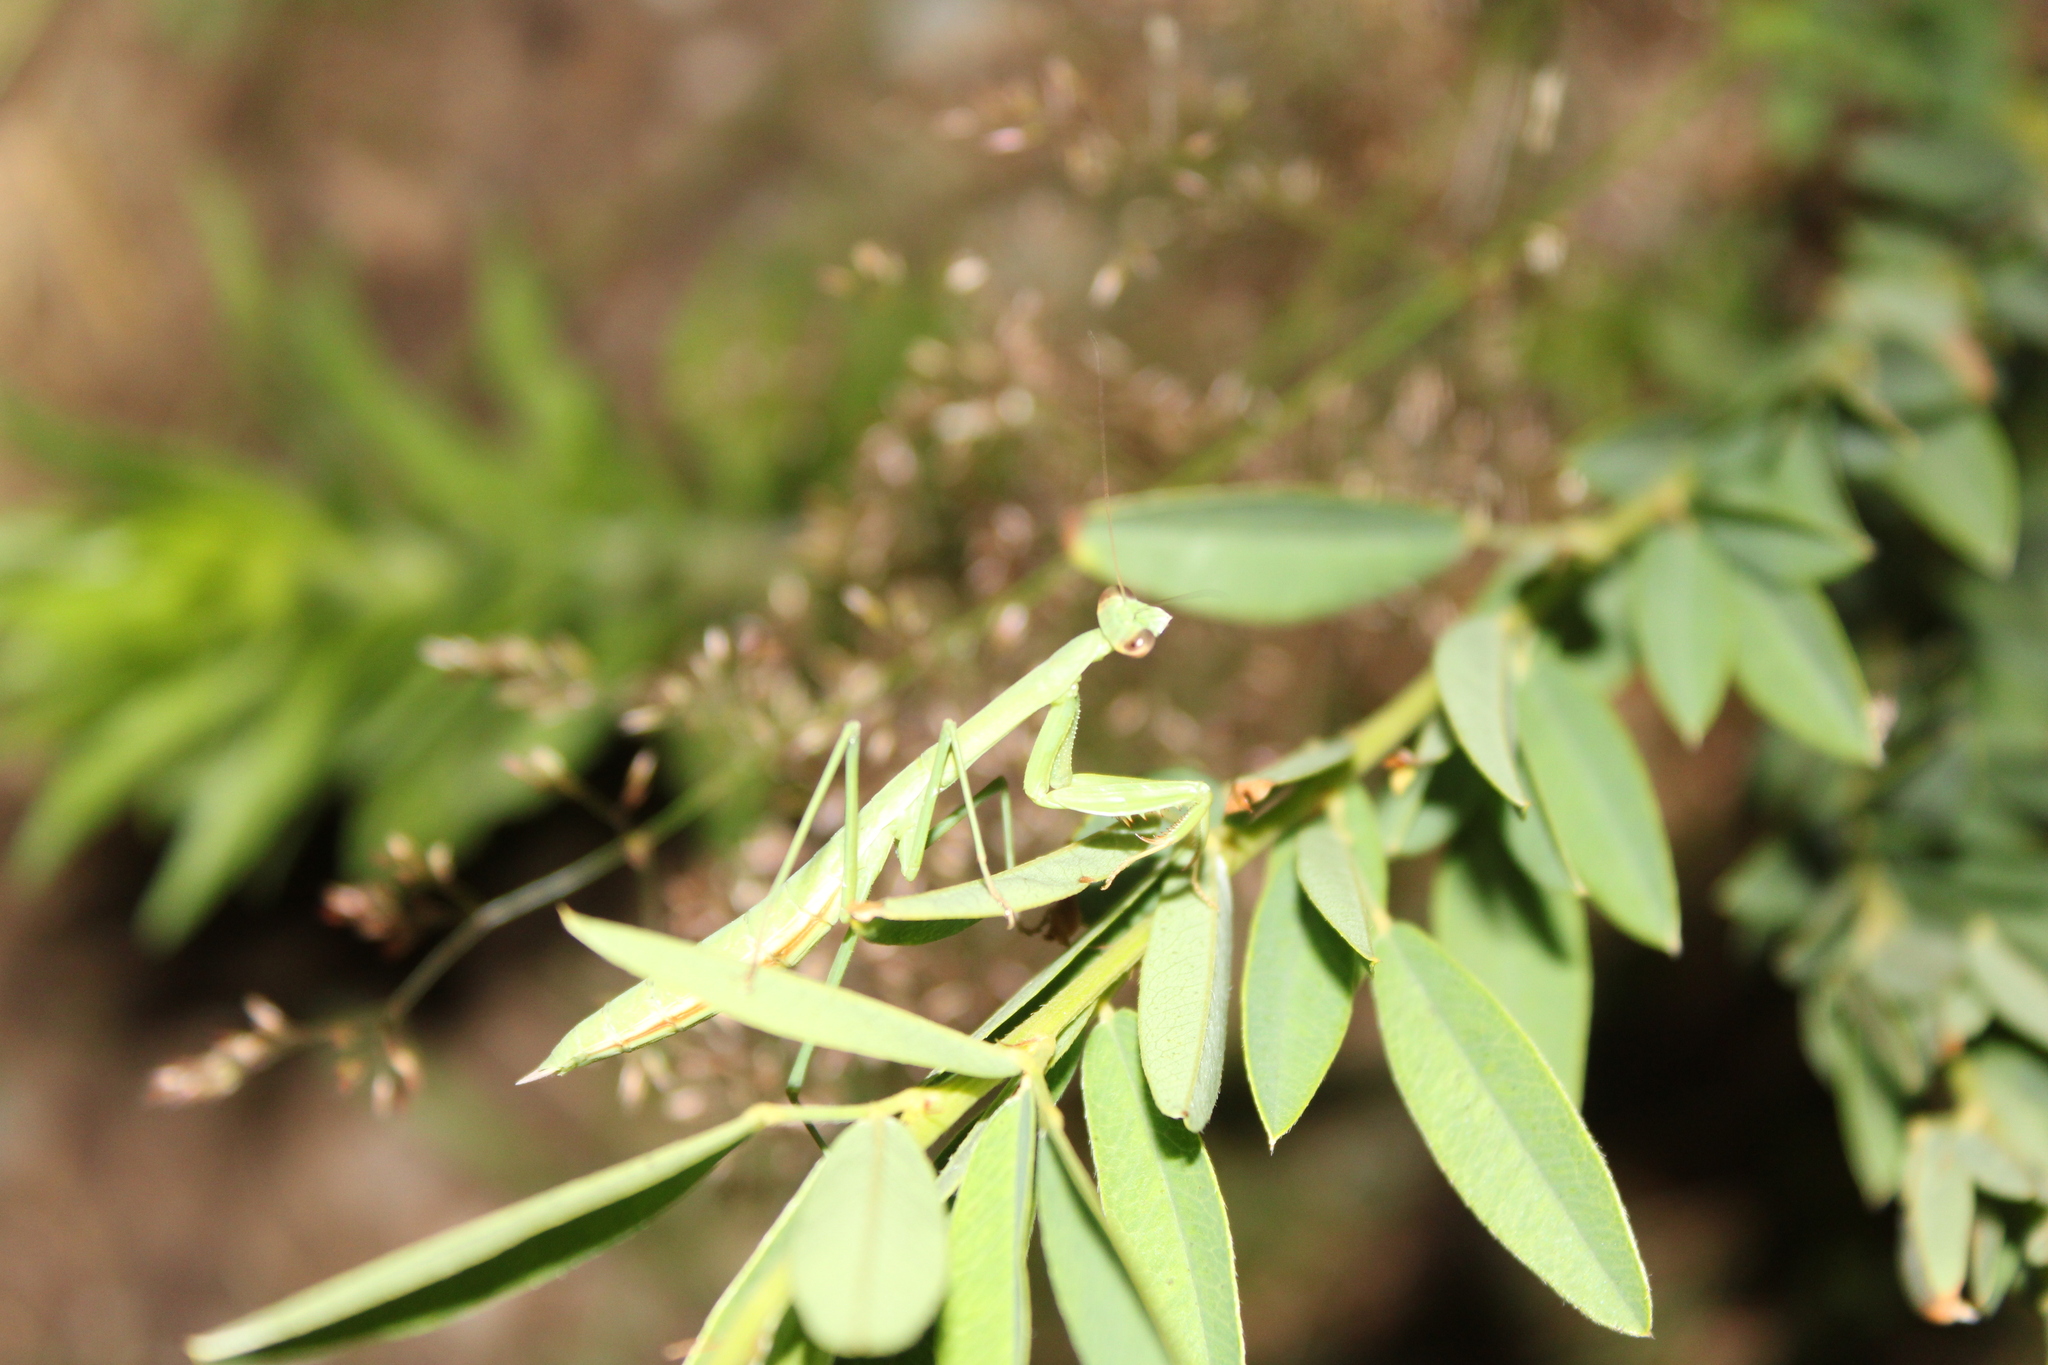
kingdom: Animalia
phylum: Arthropoda
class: Insecta
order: Mantodea
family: Mantidae
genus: Tenodera
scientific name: Tenodera sinensis
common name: Chinese mantis
